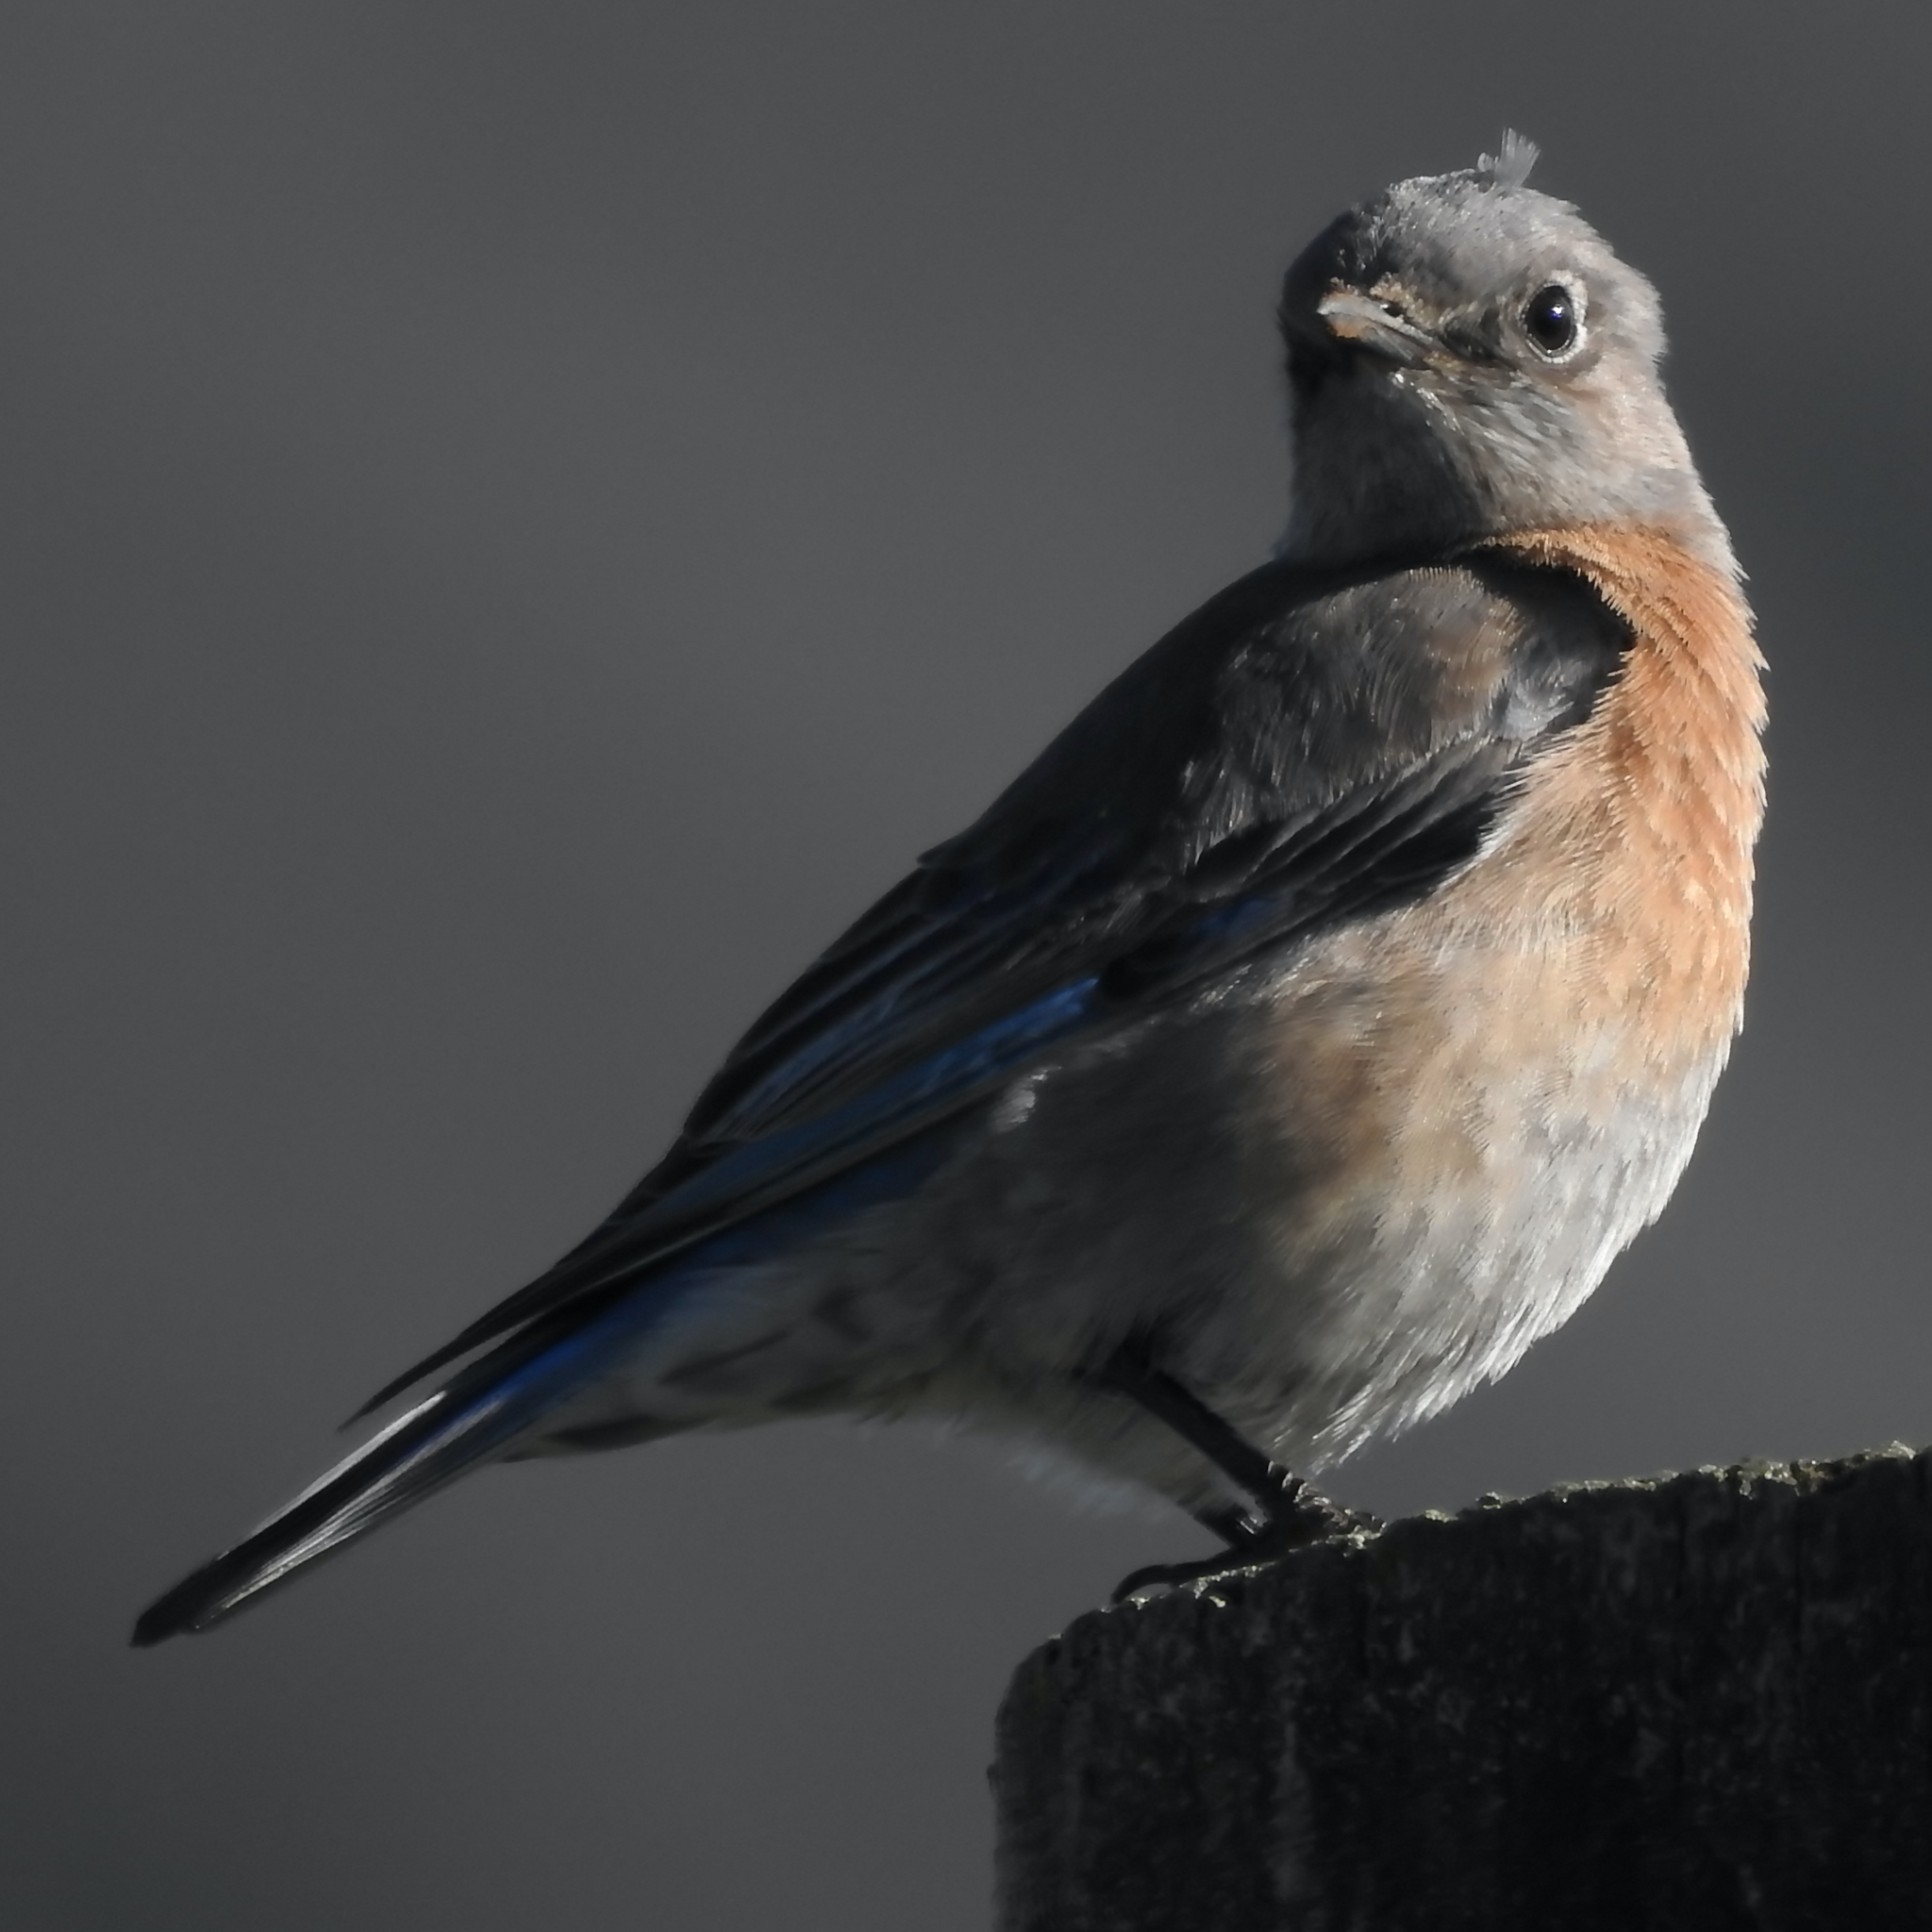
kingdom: Animalia
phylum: Chordata
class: Aves
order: Passeriformes
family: Turdidae
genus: Sialia
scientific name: Sialia mexicana
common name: Western bluebird
